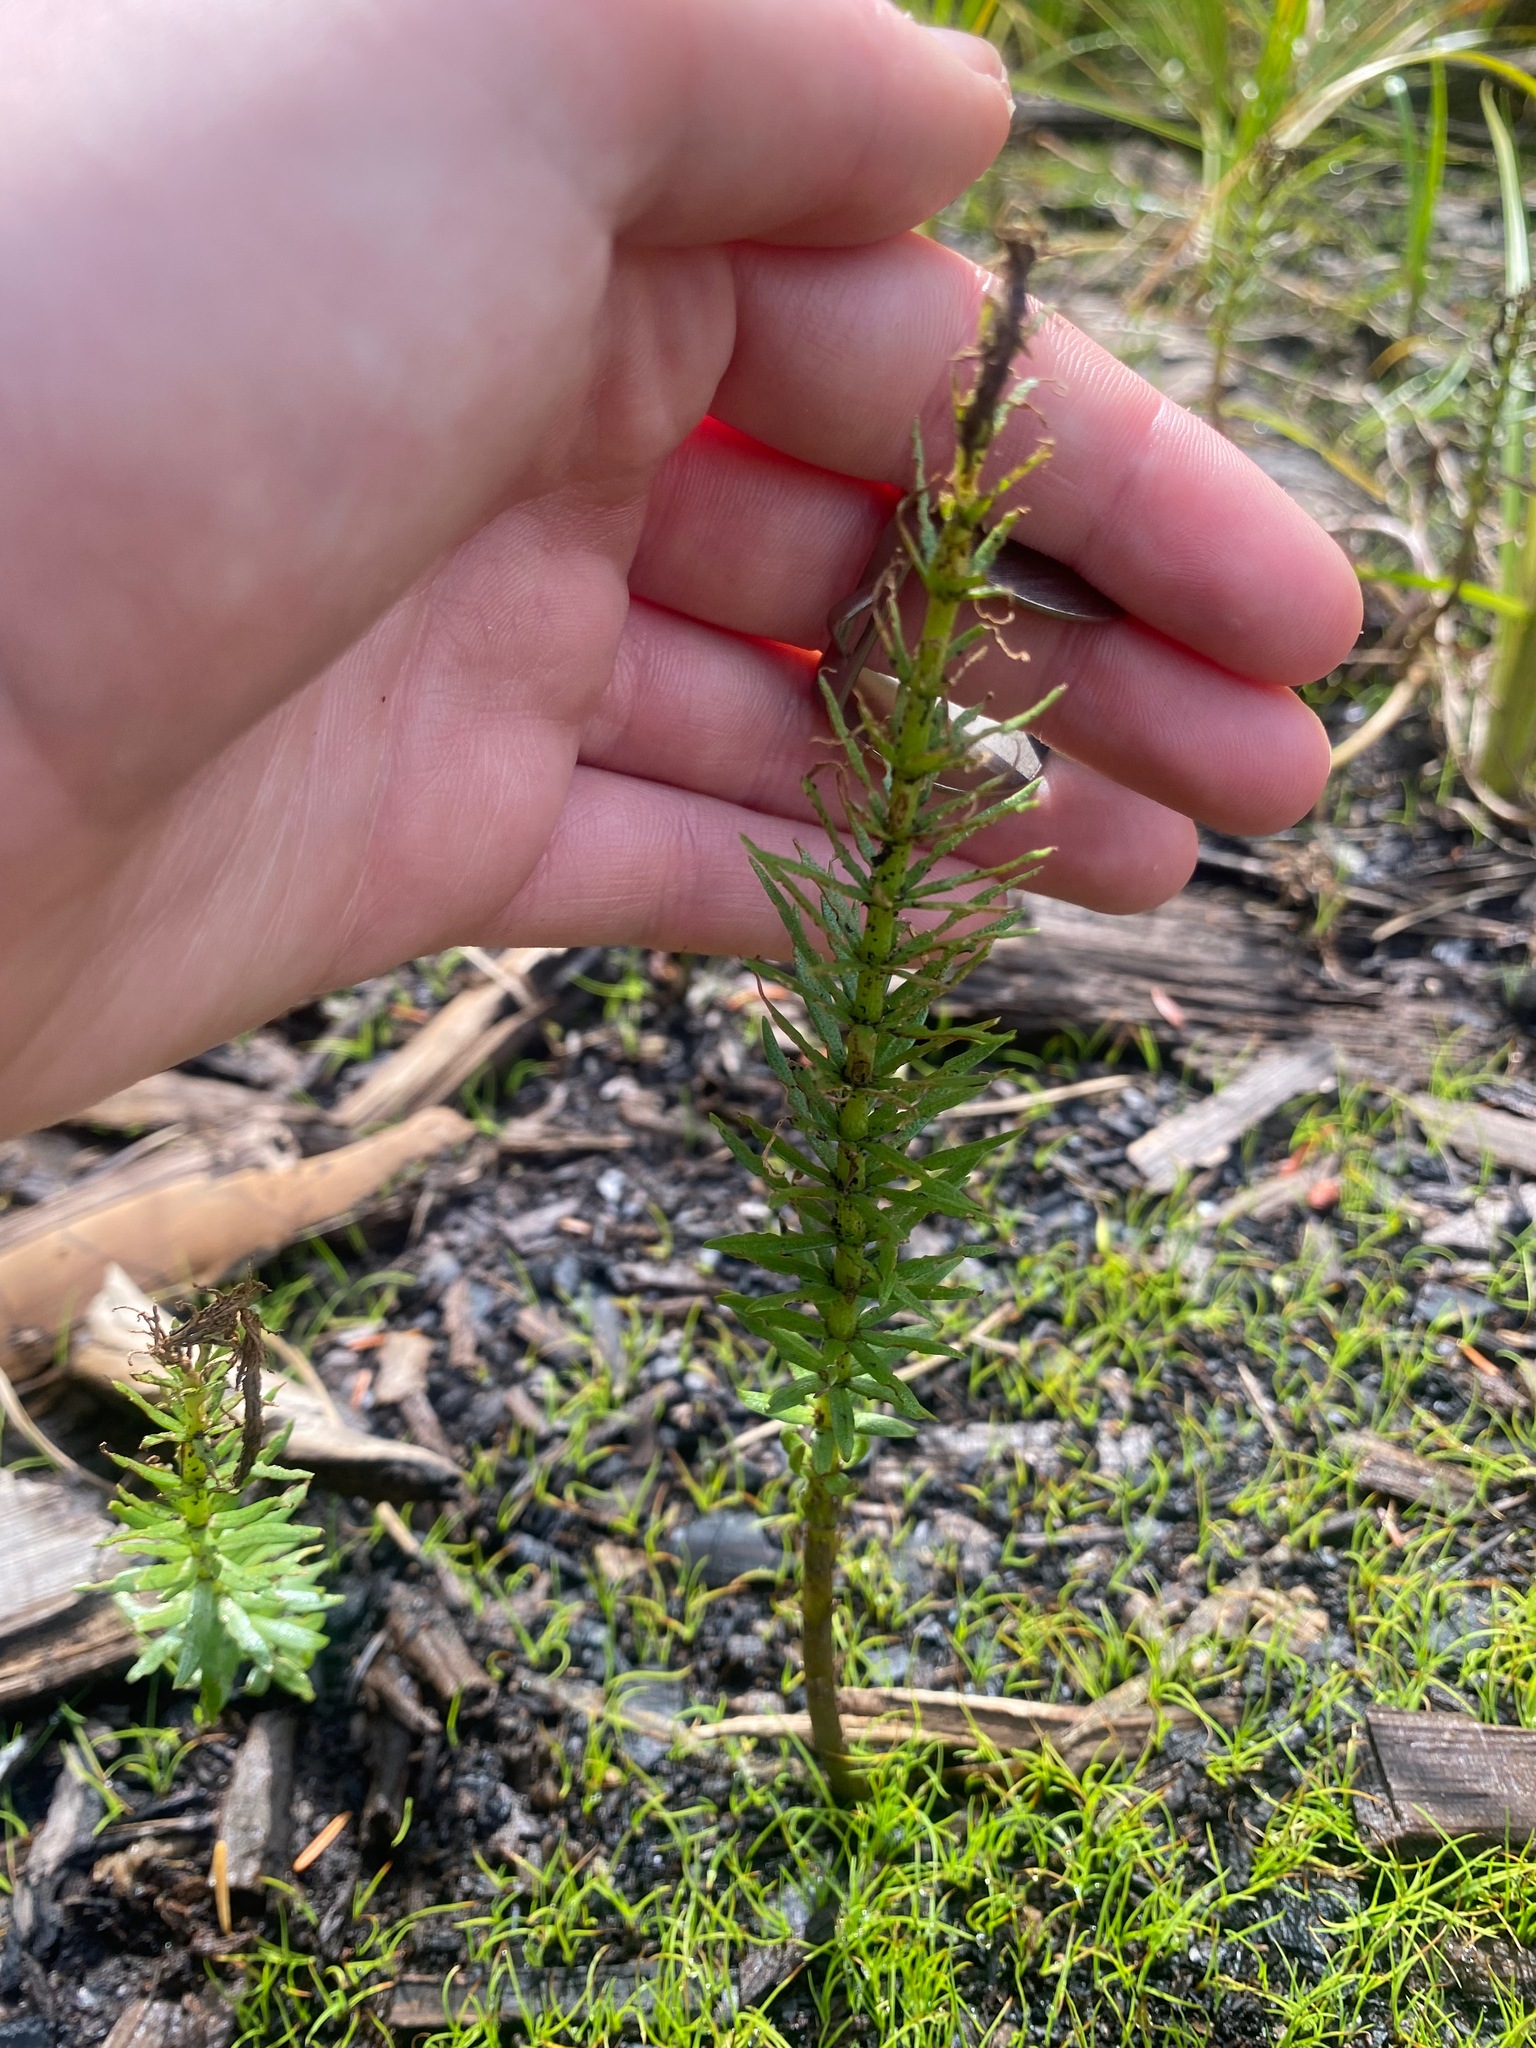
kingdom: Plantae
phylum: Tracheophyta
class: Magnoliopsida
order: Lamiales
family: Plantaginaceae
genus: Hippuris
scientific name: Hippuris vulgaris
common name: Mare's-tail
